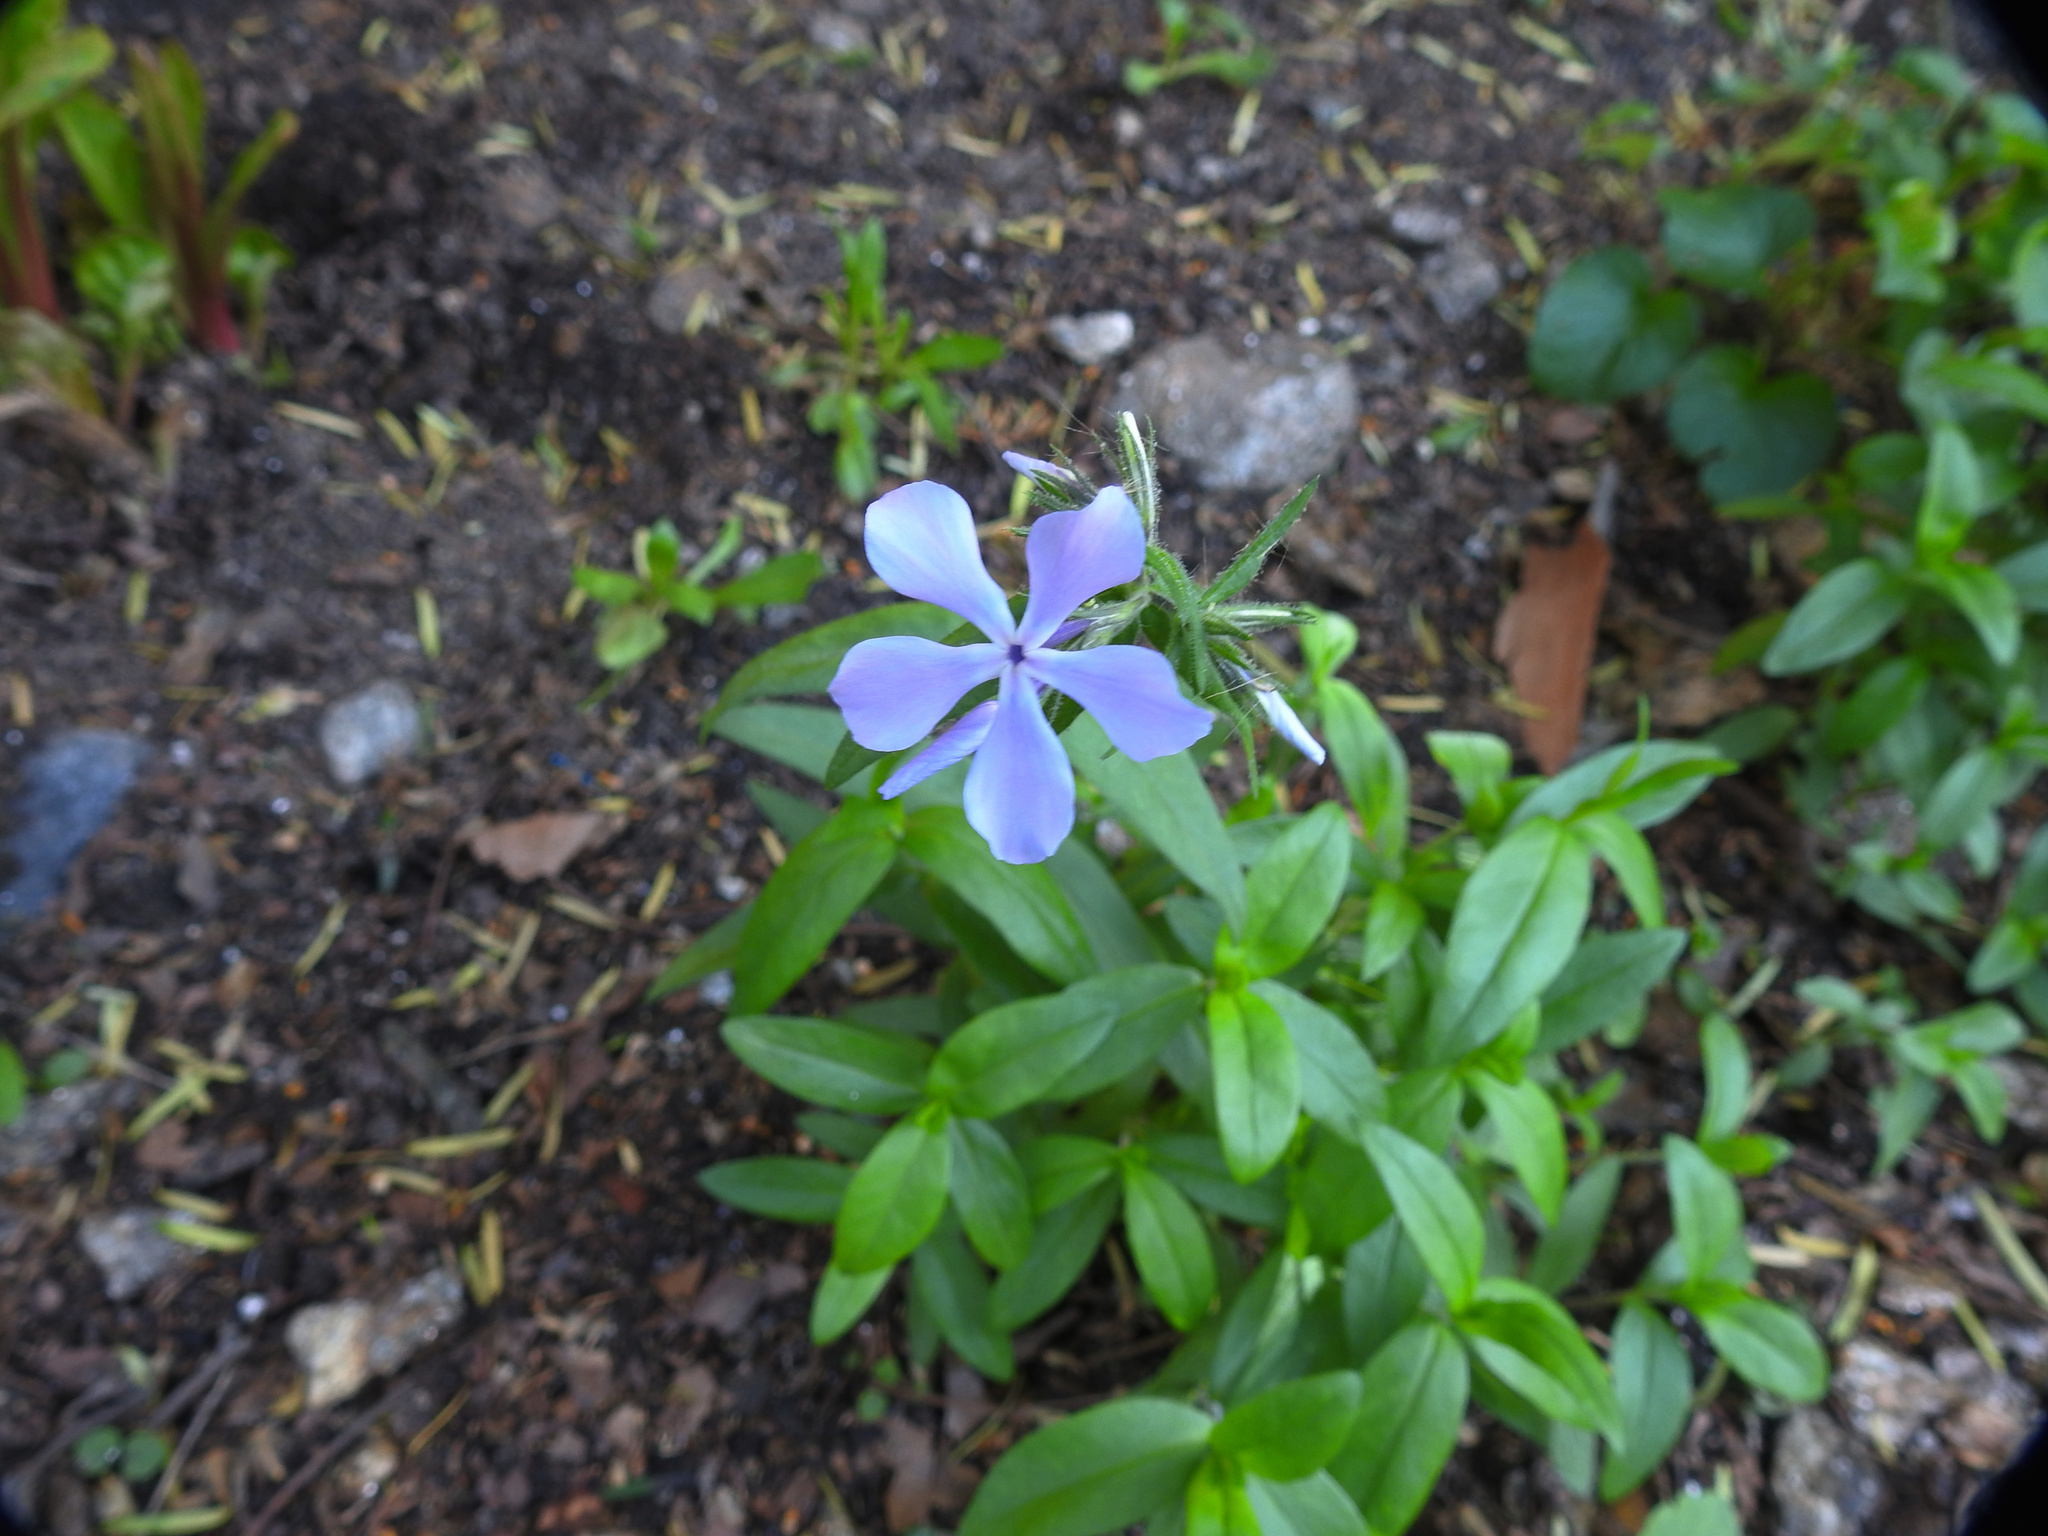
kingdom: Plantae
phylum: Tracheophyta
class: Magnoliopsida
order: Ericales
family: Polemoniaceae
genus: Phlox
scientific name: Phlox divaricata
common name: Blue phlox
